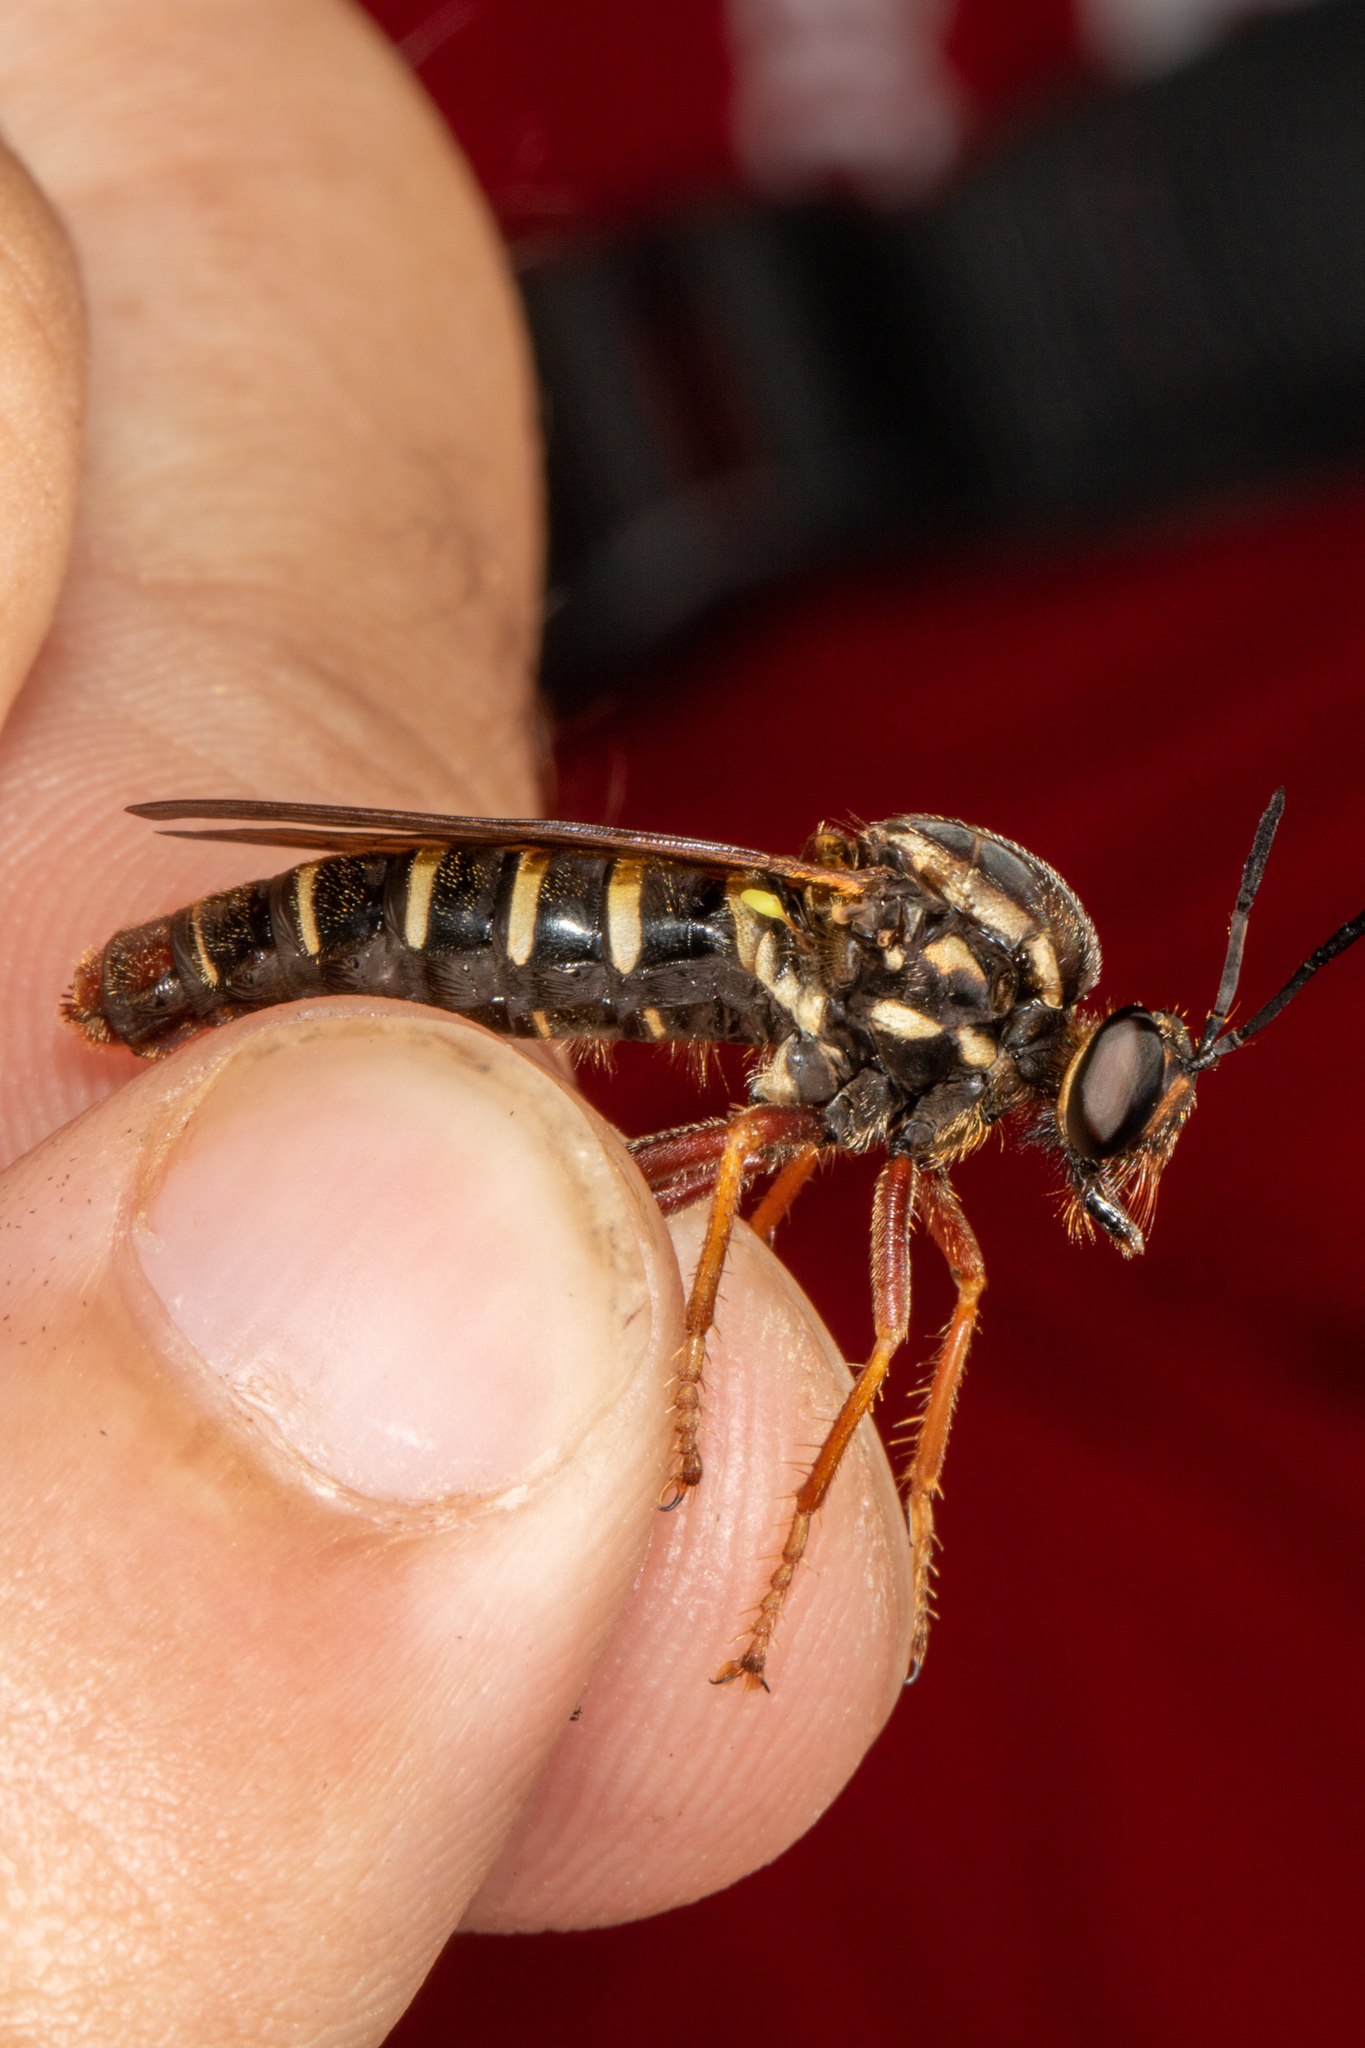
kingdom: Animalia
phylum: Arthropoda
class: Insecta
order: Diptera
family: Asilidae
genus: Ceraturgus
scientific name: Ceraturgus fasciatus
